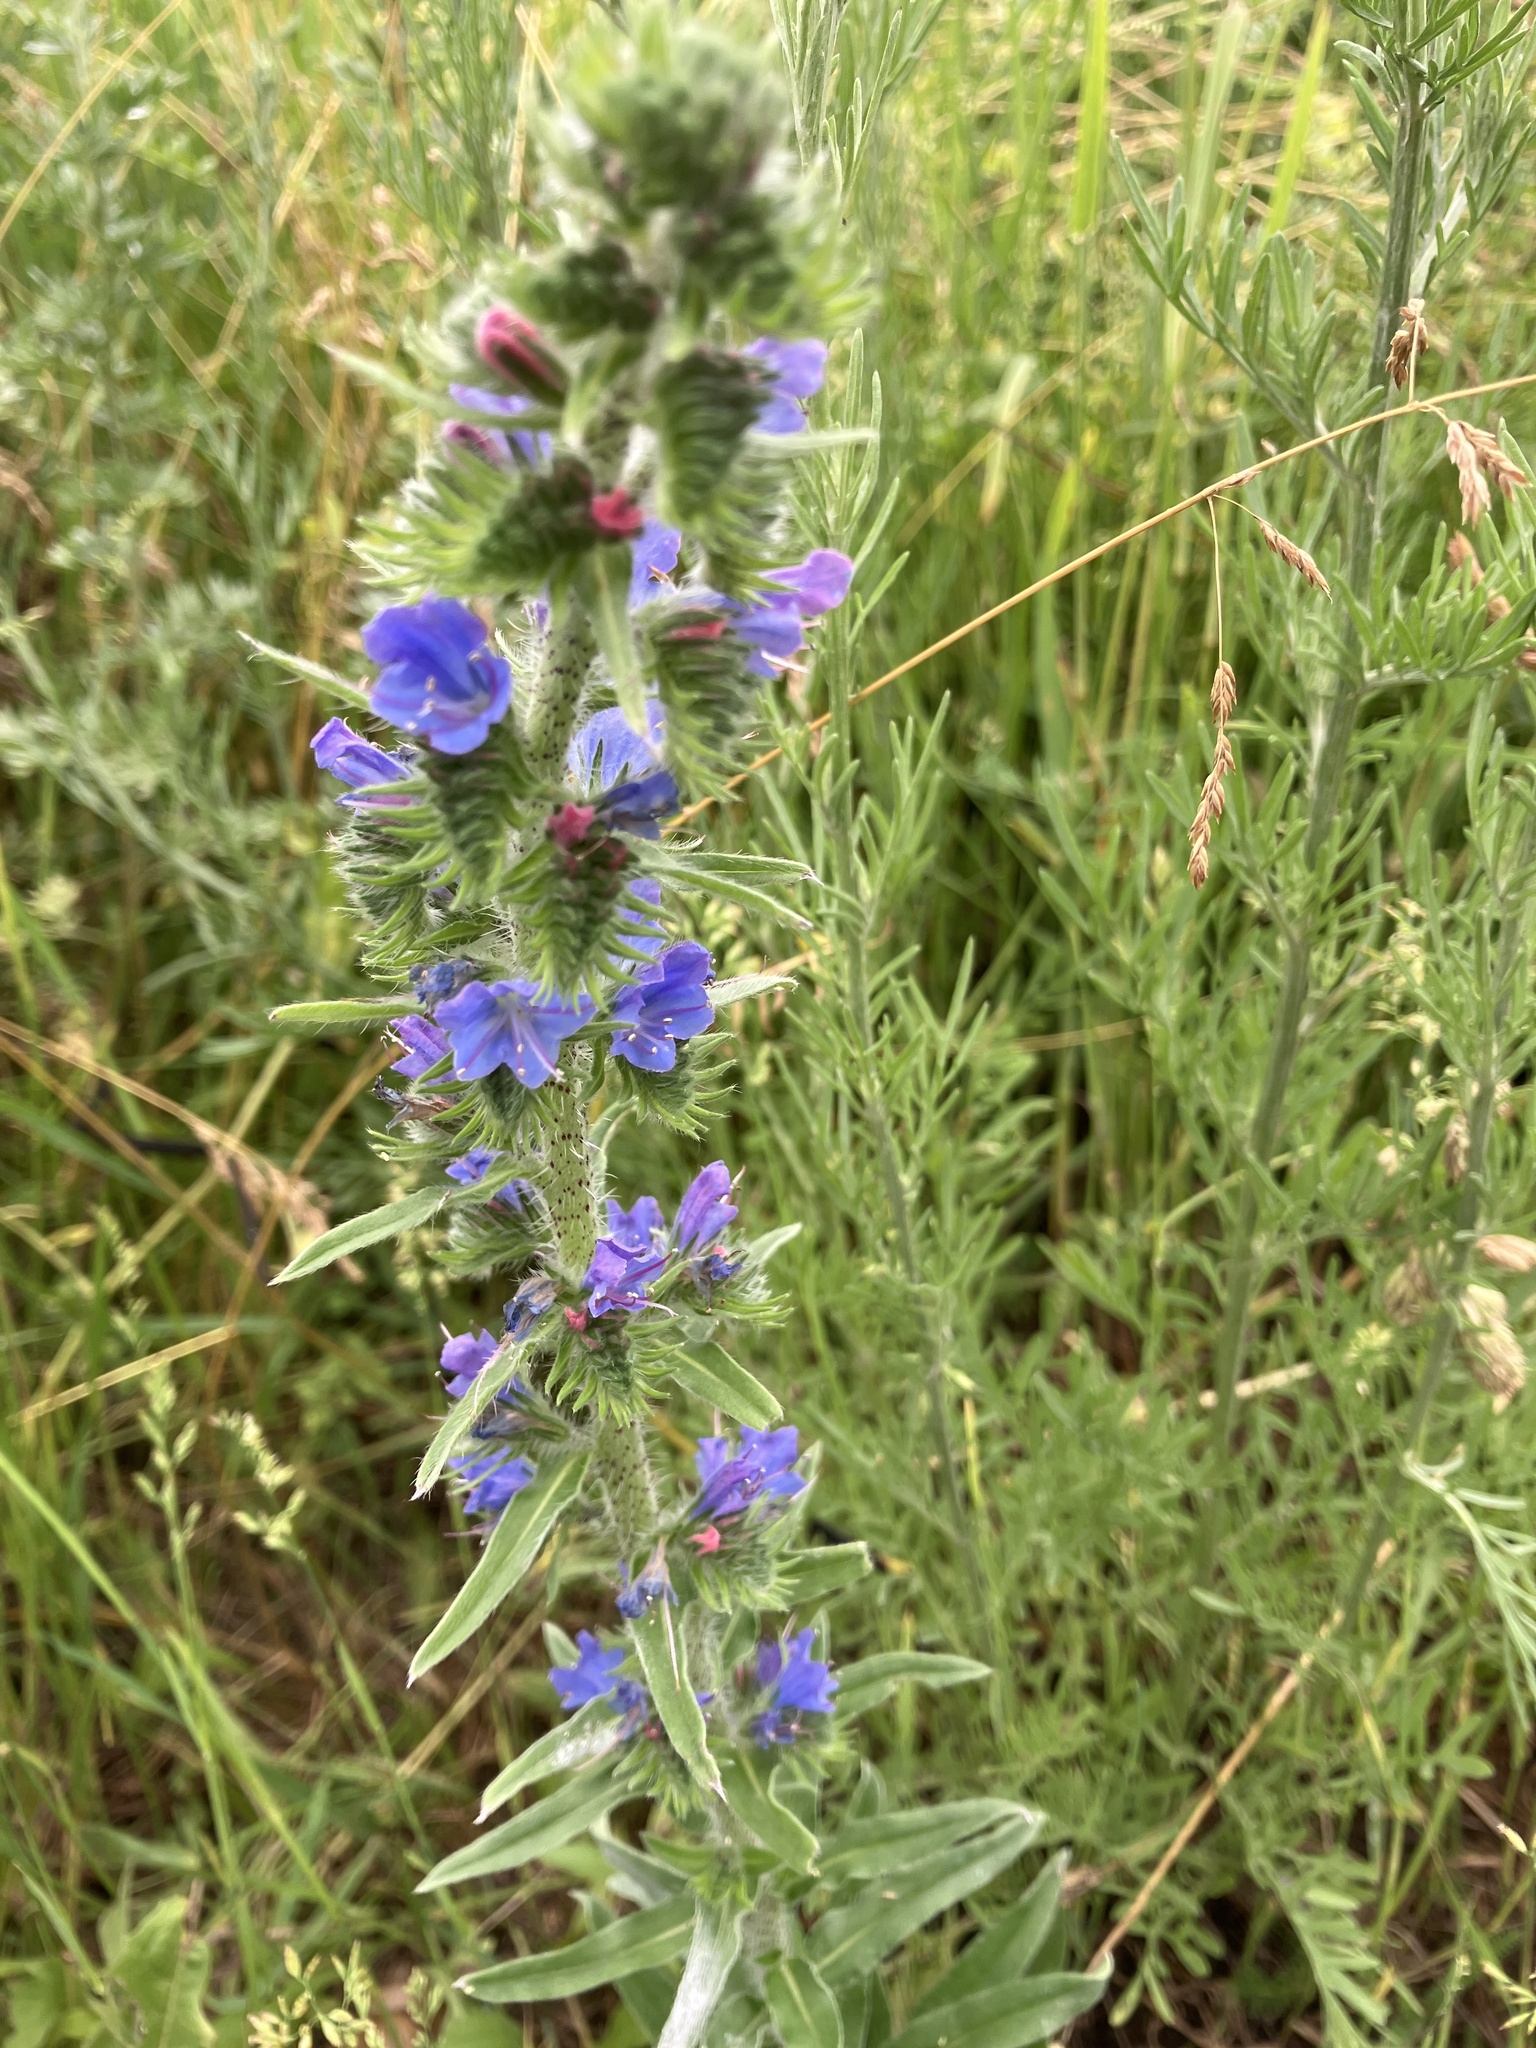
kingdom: Plantae
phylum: Tracheophyta
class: Magnoliopsida
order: Boraginales
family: Boraginaceae
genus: Echium
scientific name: Echium vulgare
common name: Common viper's bugloss
